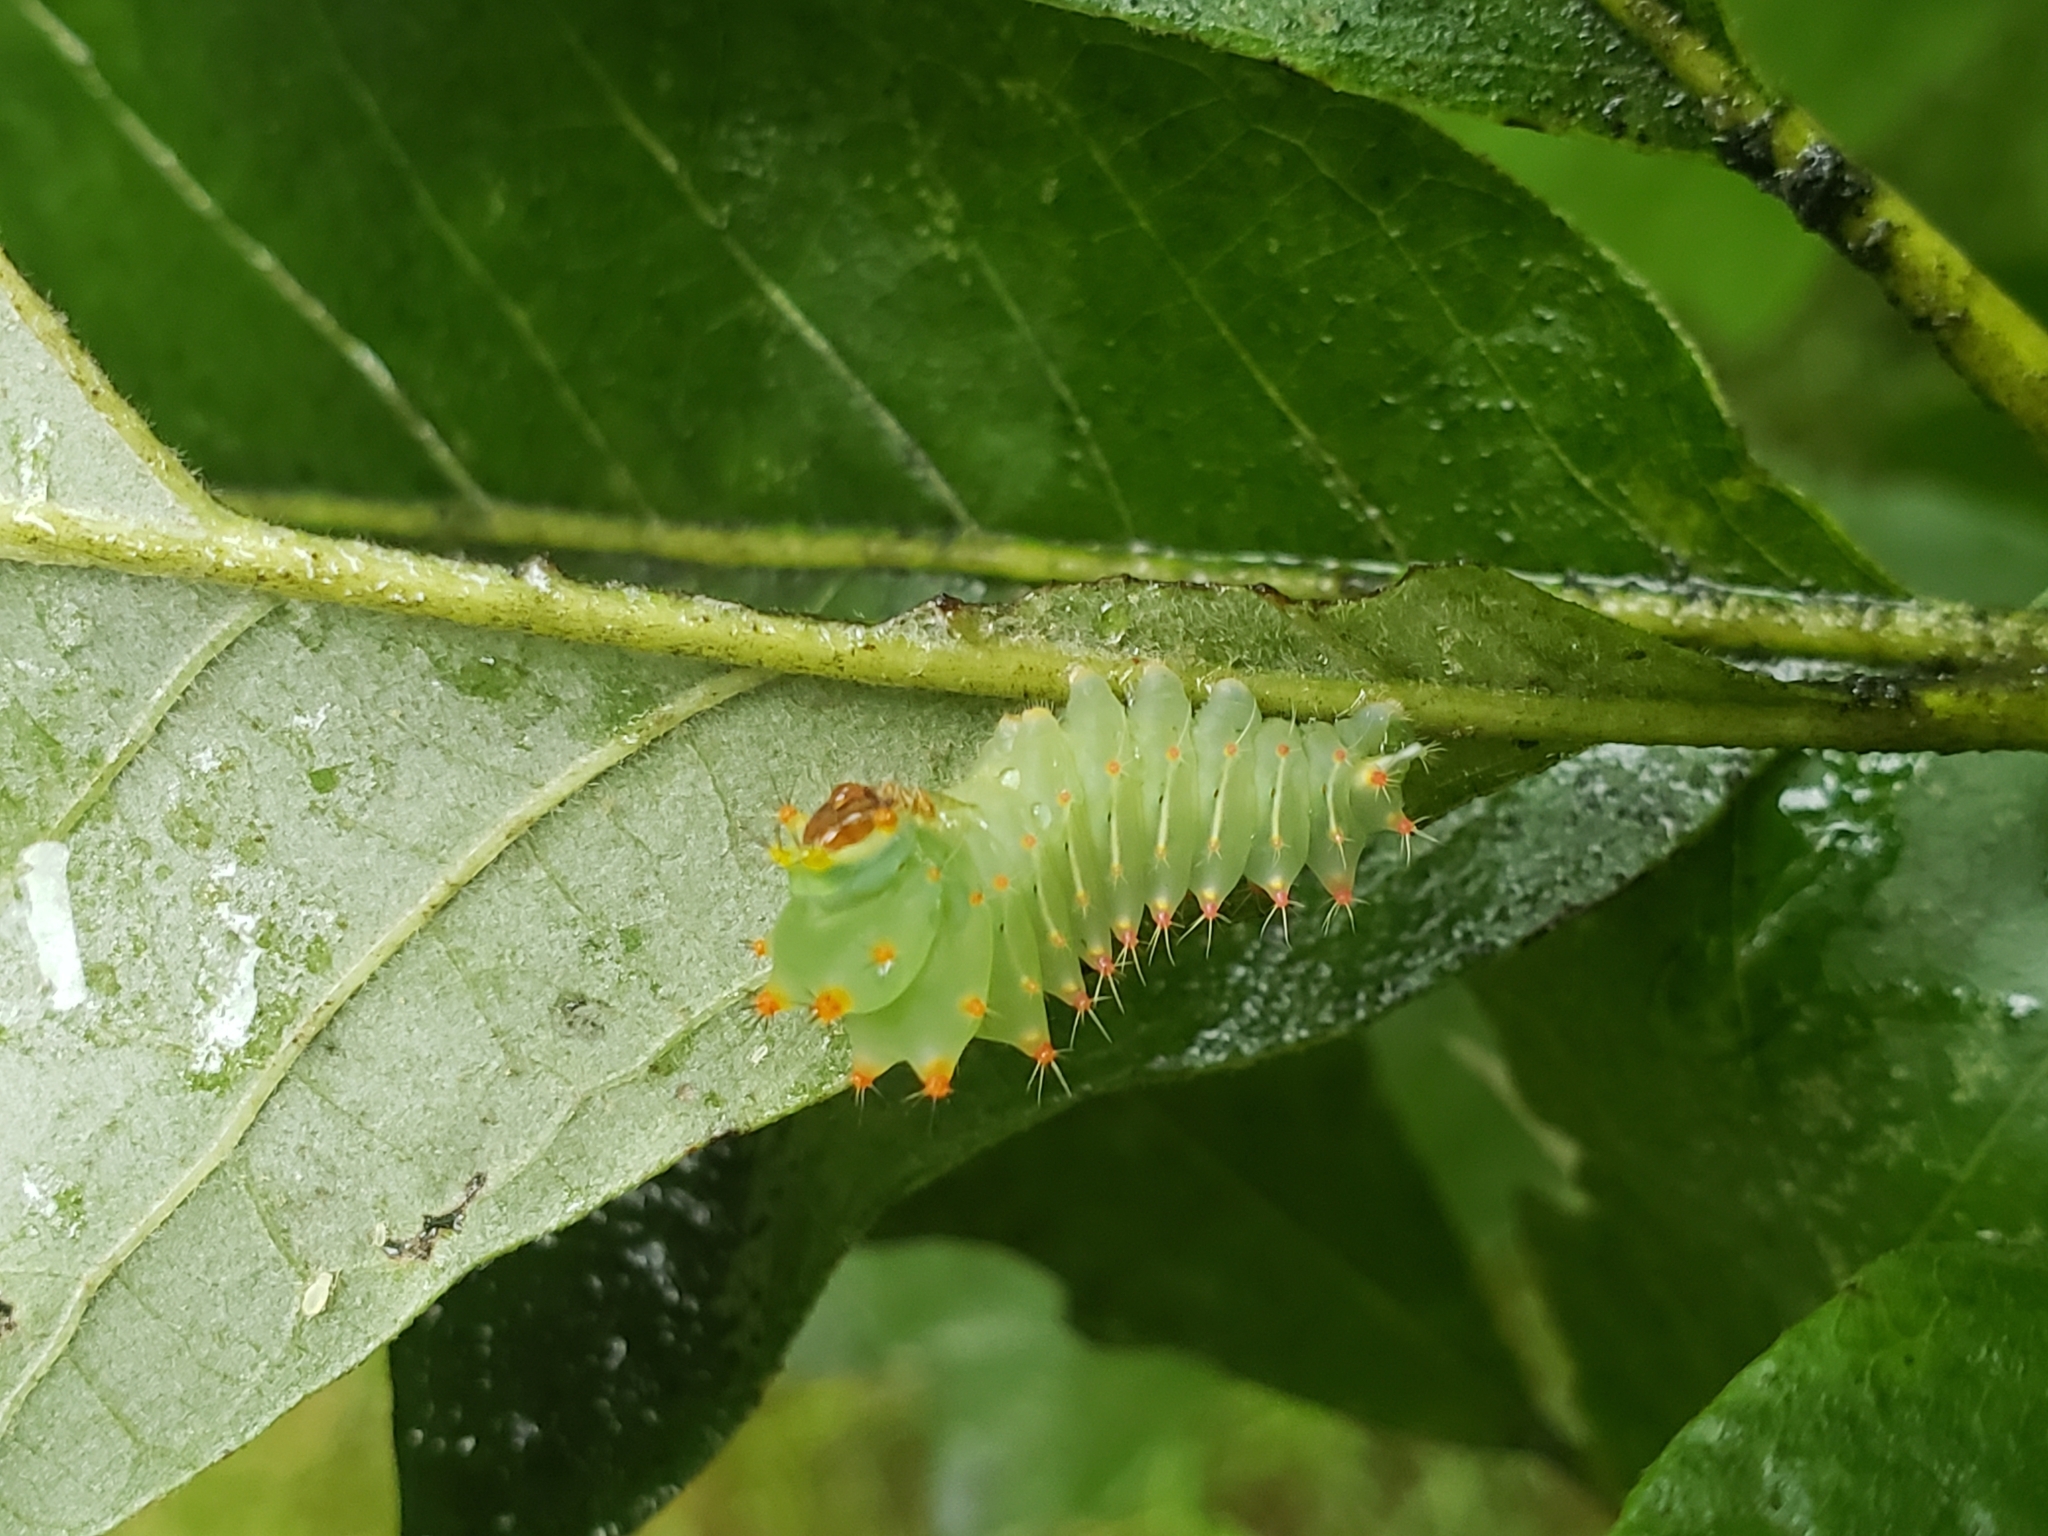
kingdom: Animalia
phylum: Arthropoda
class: Insecta
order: Lepidoptera
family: Saturniidae
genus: Antheraea
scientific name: Antheraea polyphemus
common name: Polyphemus moth
